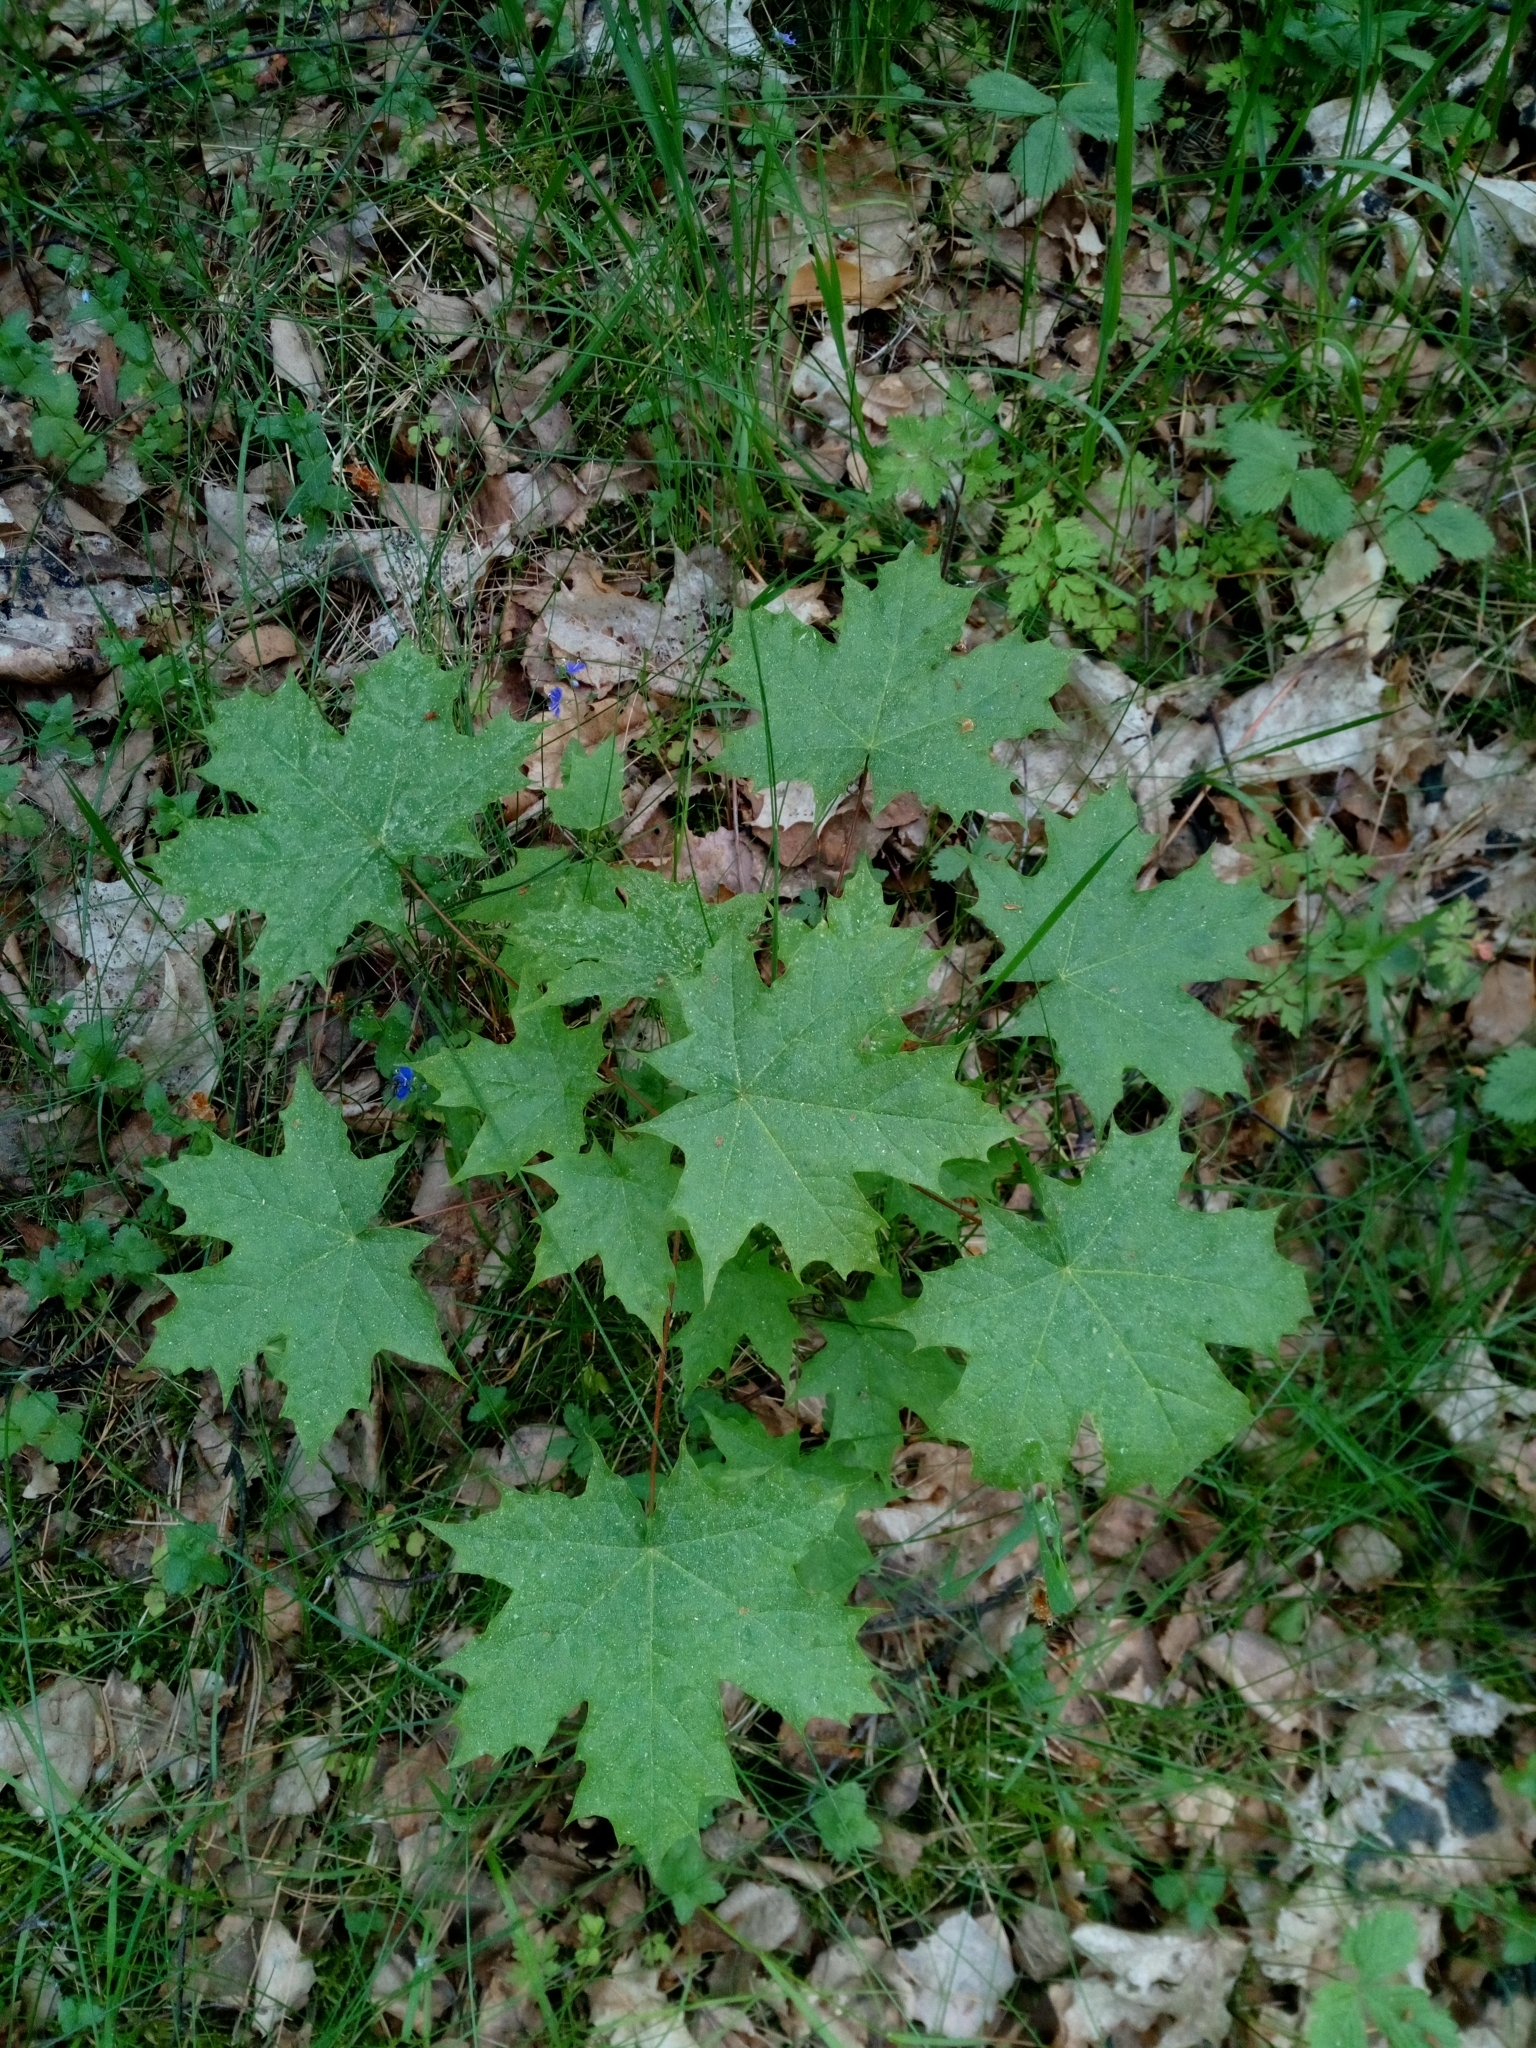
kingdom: Plantae
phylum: Tracheophyta
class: Magnoliopsida
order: Sapindales
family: Sapindaceae
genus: Acer
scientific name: Acer platanoides
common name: Norway maple
